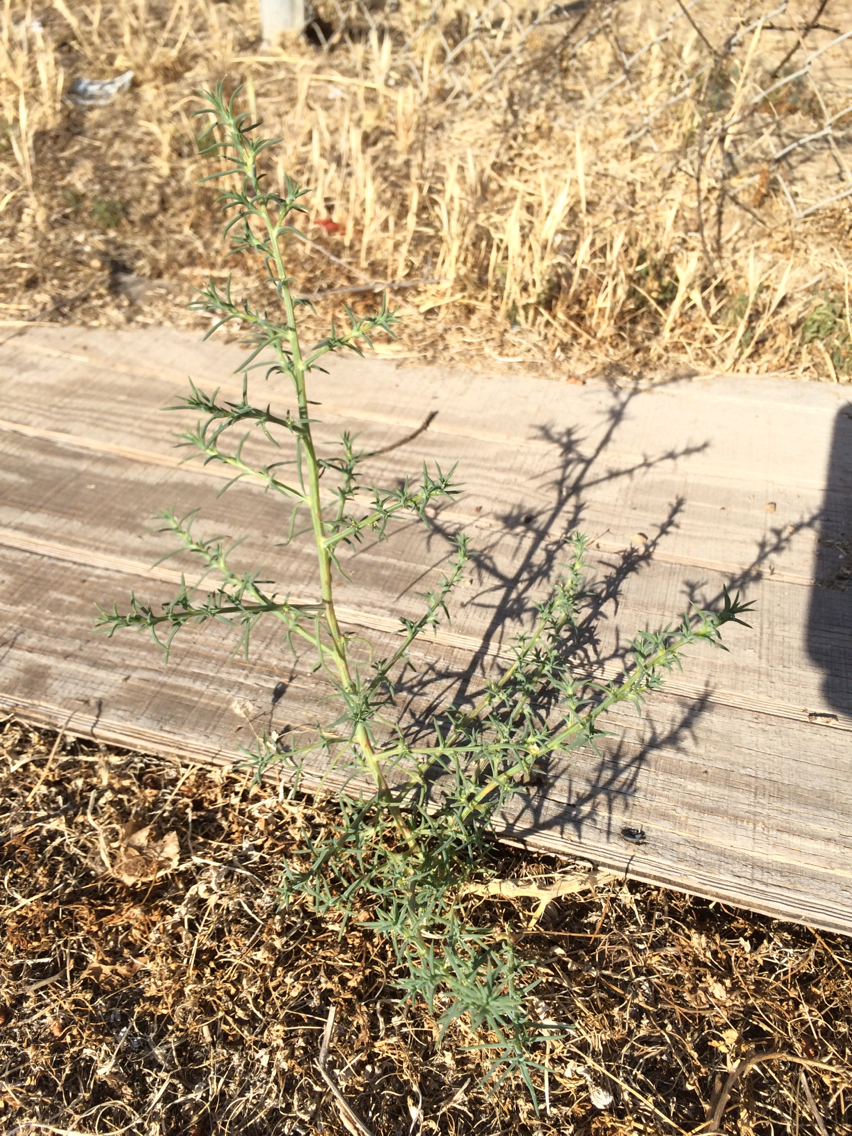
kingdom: Plantae
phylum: Tracheophyta
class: Magnoliopsida
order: Caryophyllales
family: Amaranthaceae
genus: Salsola
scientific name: Salsola
